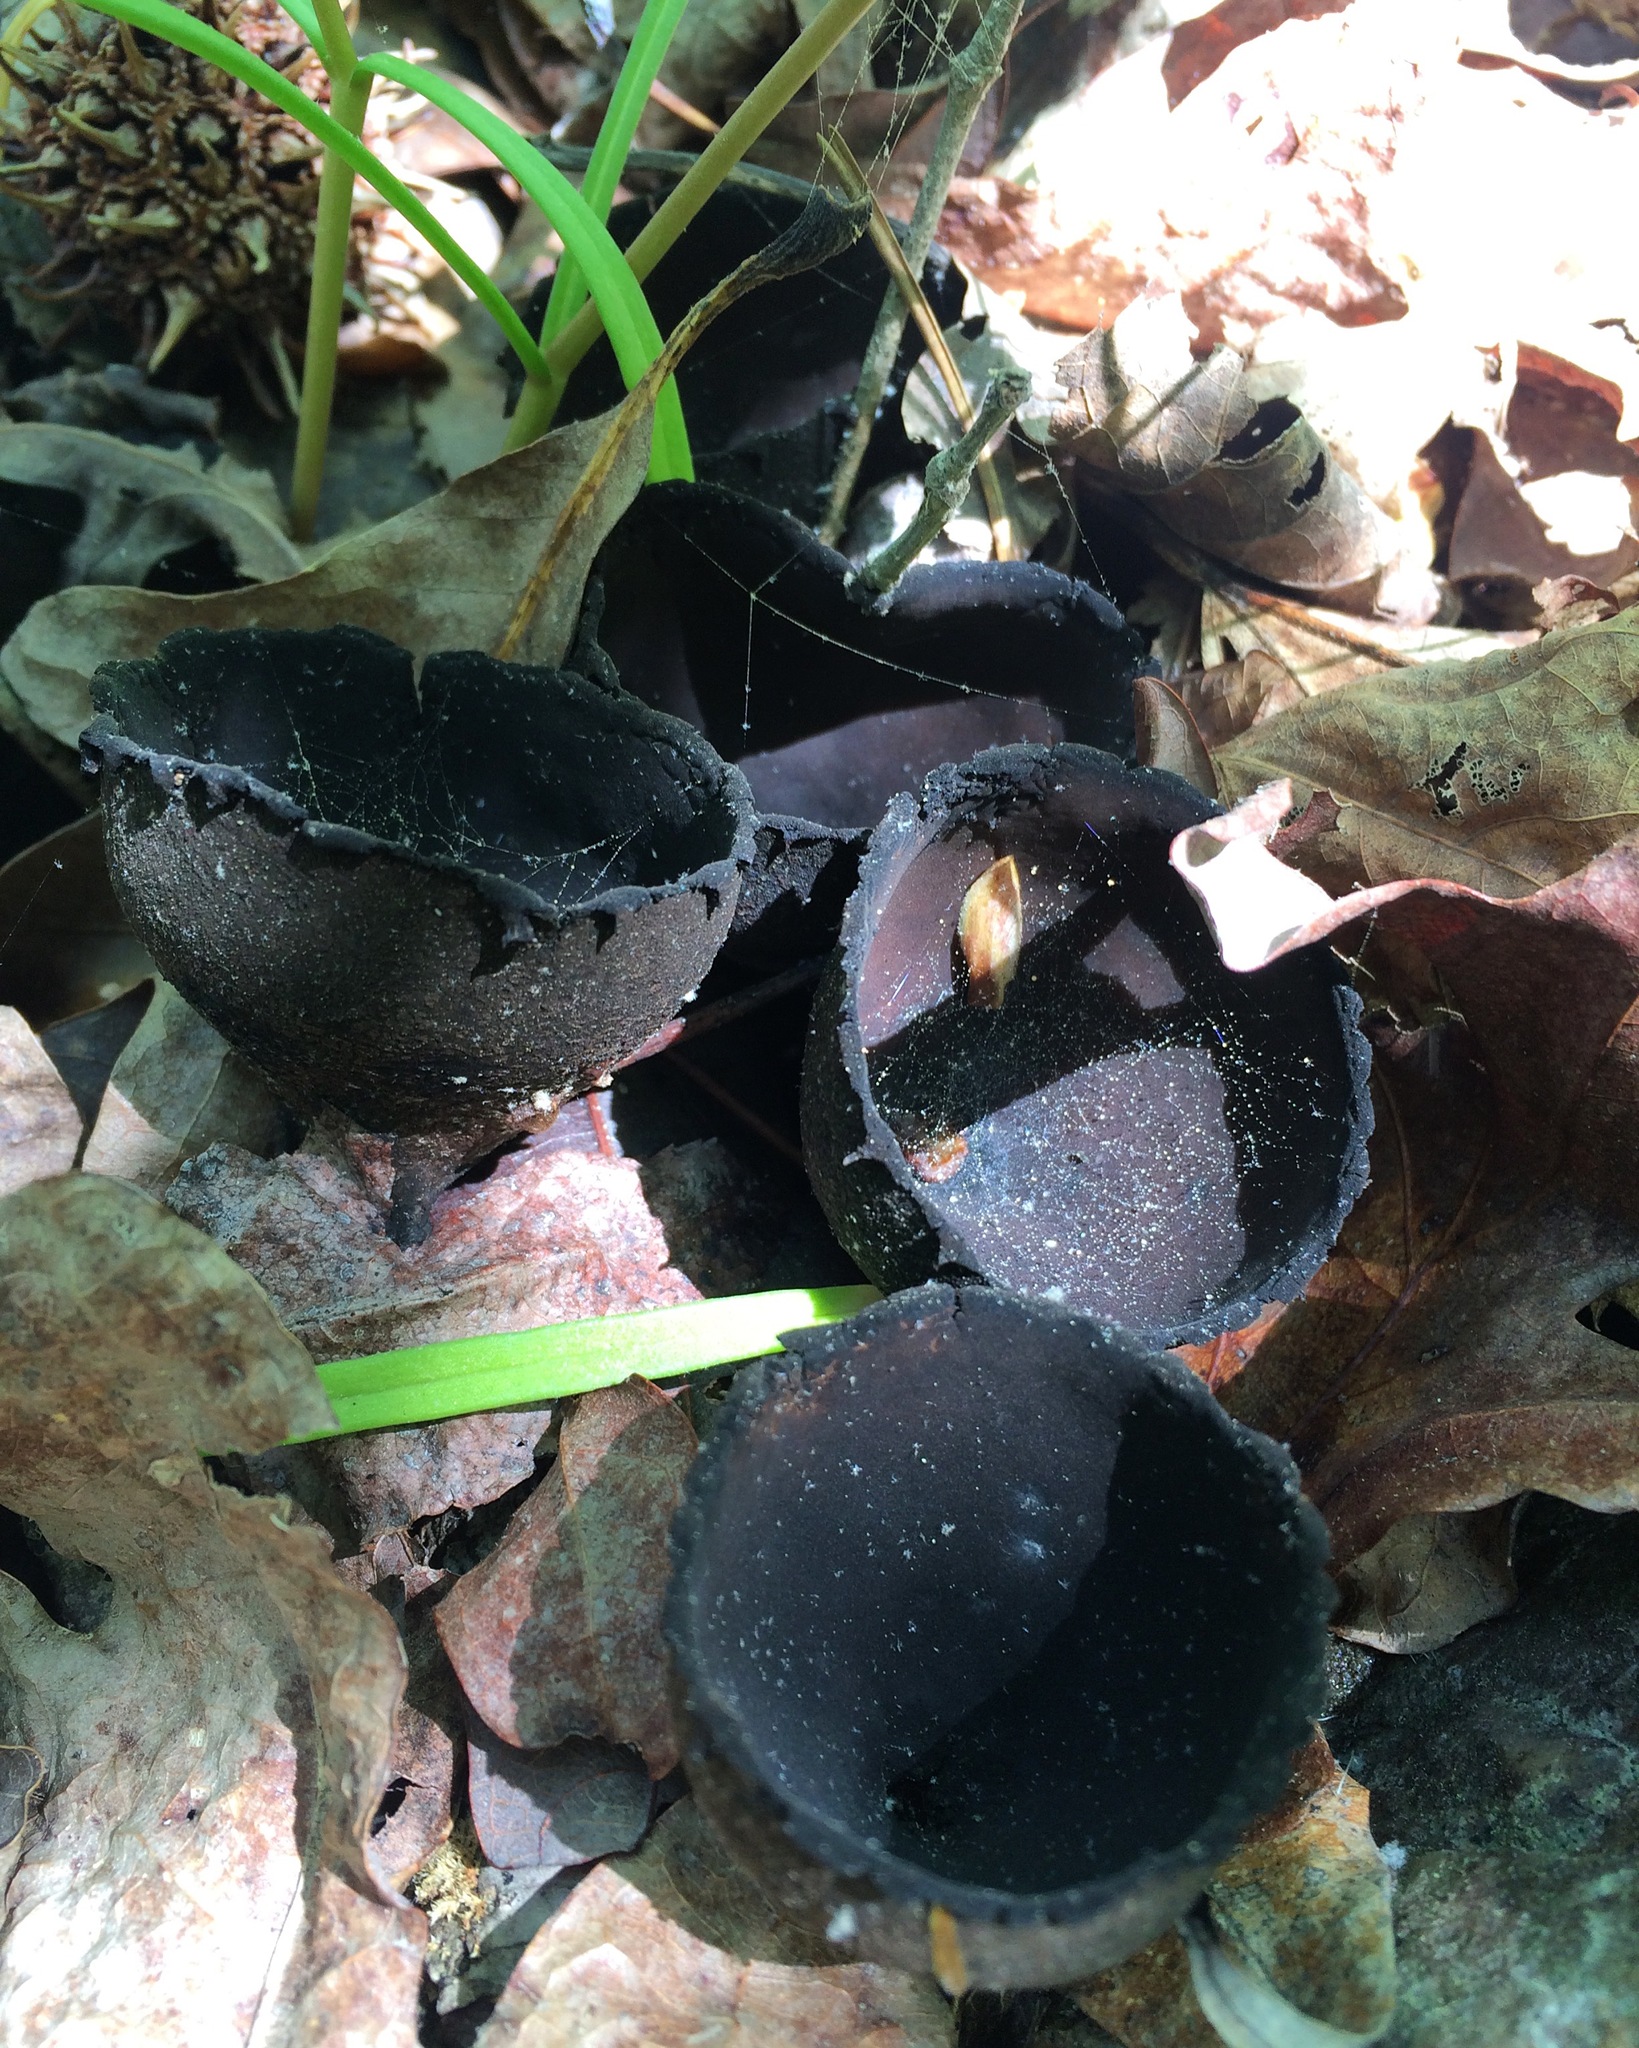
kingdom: Fungi
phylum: Ascomycota
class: Pezizomycetes
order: Pezizales
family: Sarcosomataceae
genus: Urnula
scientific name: Urnula craterium
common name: Devil's urn
